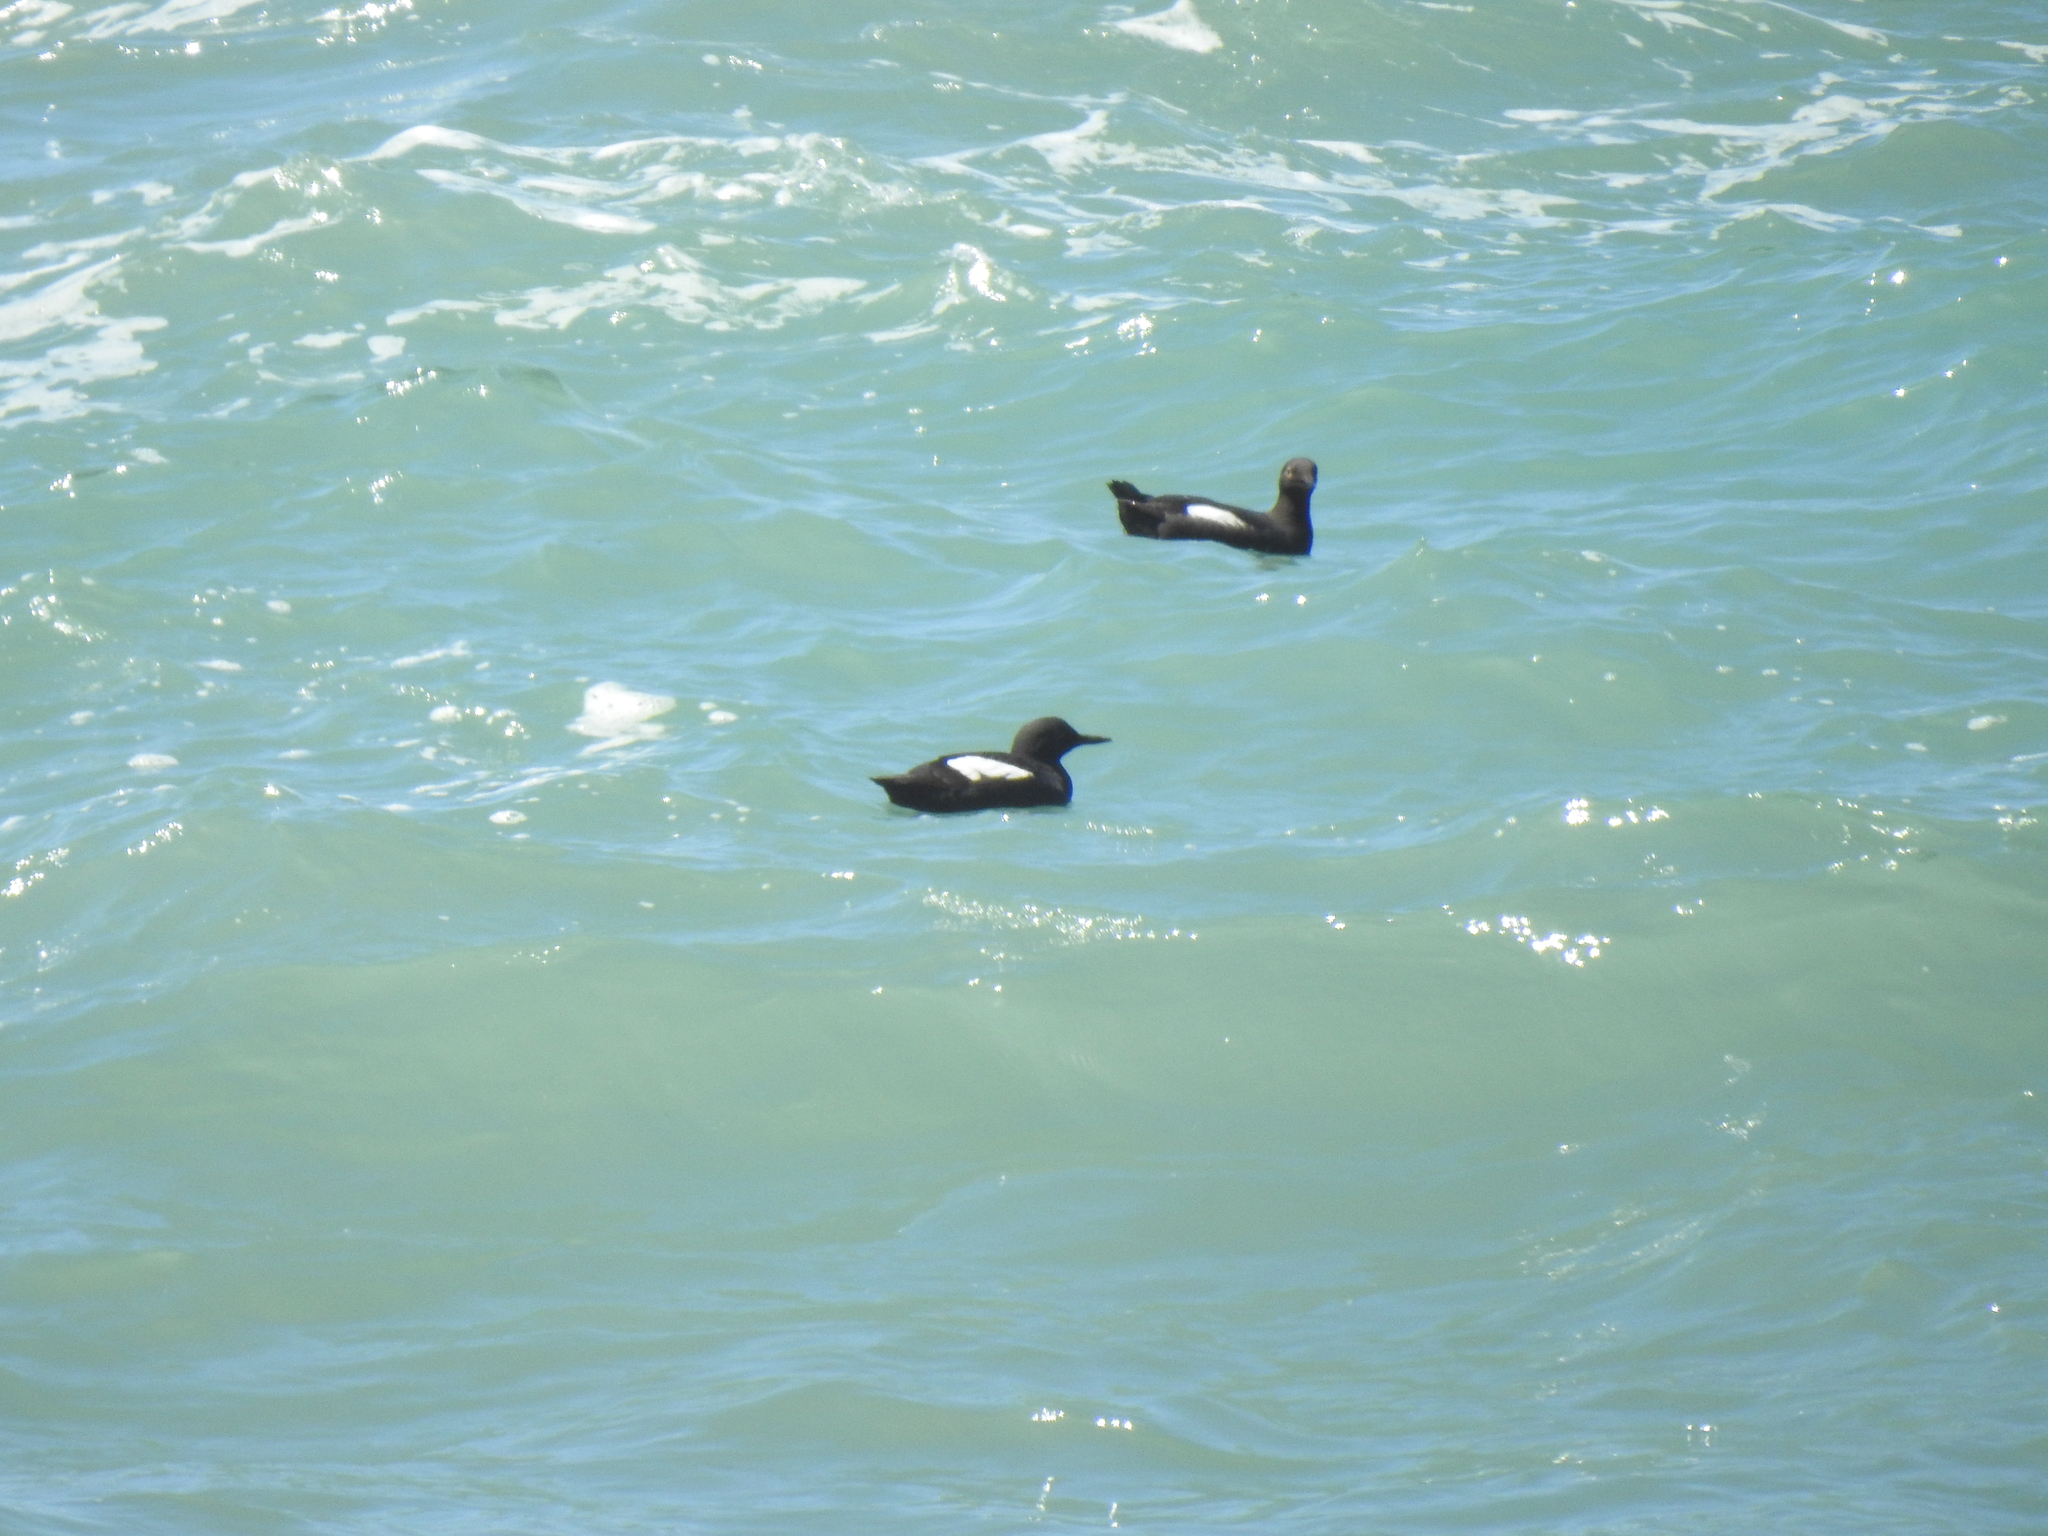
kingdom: Animalia
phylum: Chordata
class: Aves
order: Charadriiformes
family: Alcidae
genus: Cepphus
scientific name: Cepphus columba
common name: Pigeon guillemot
